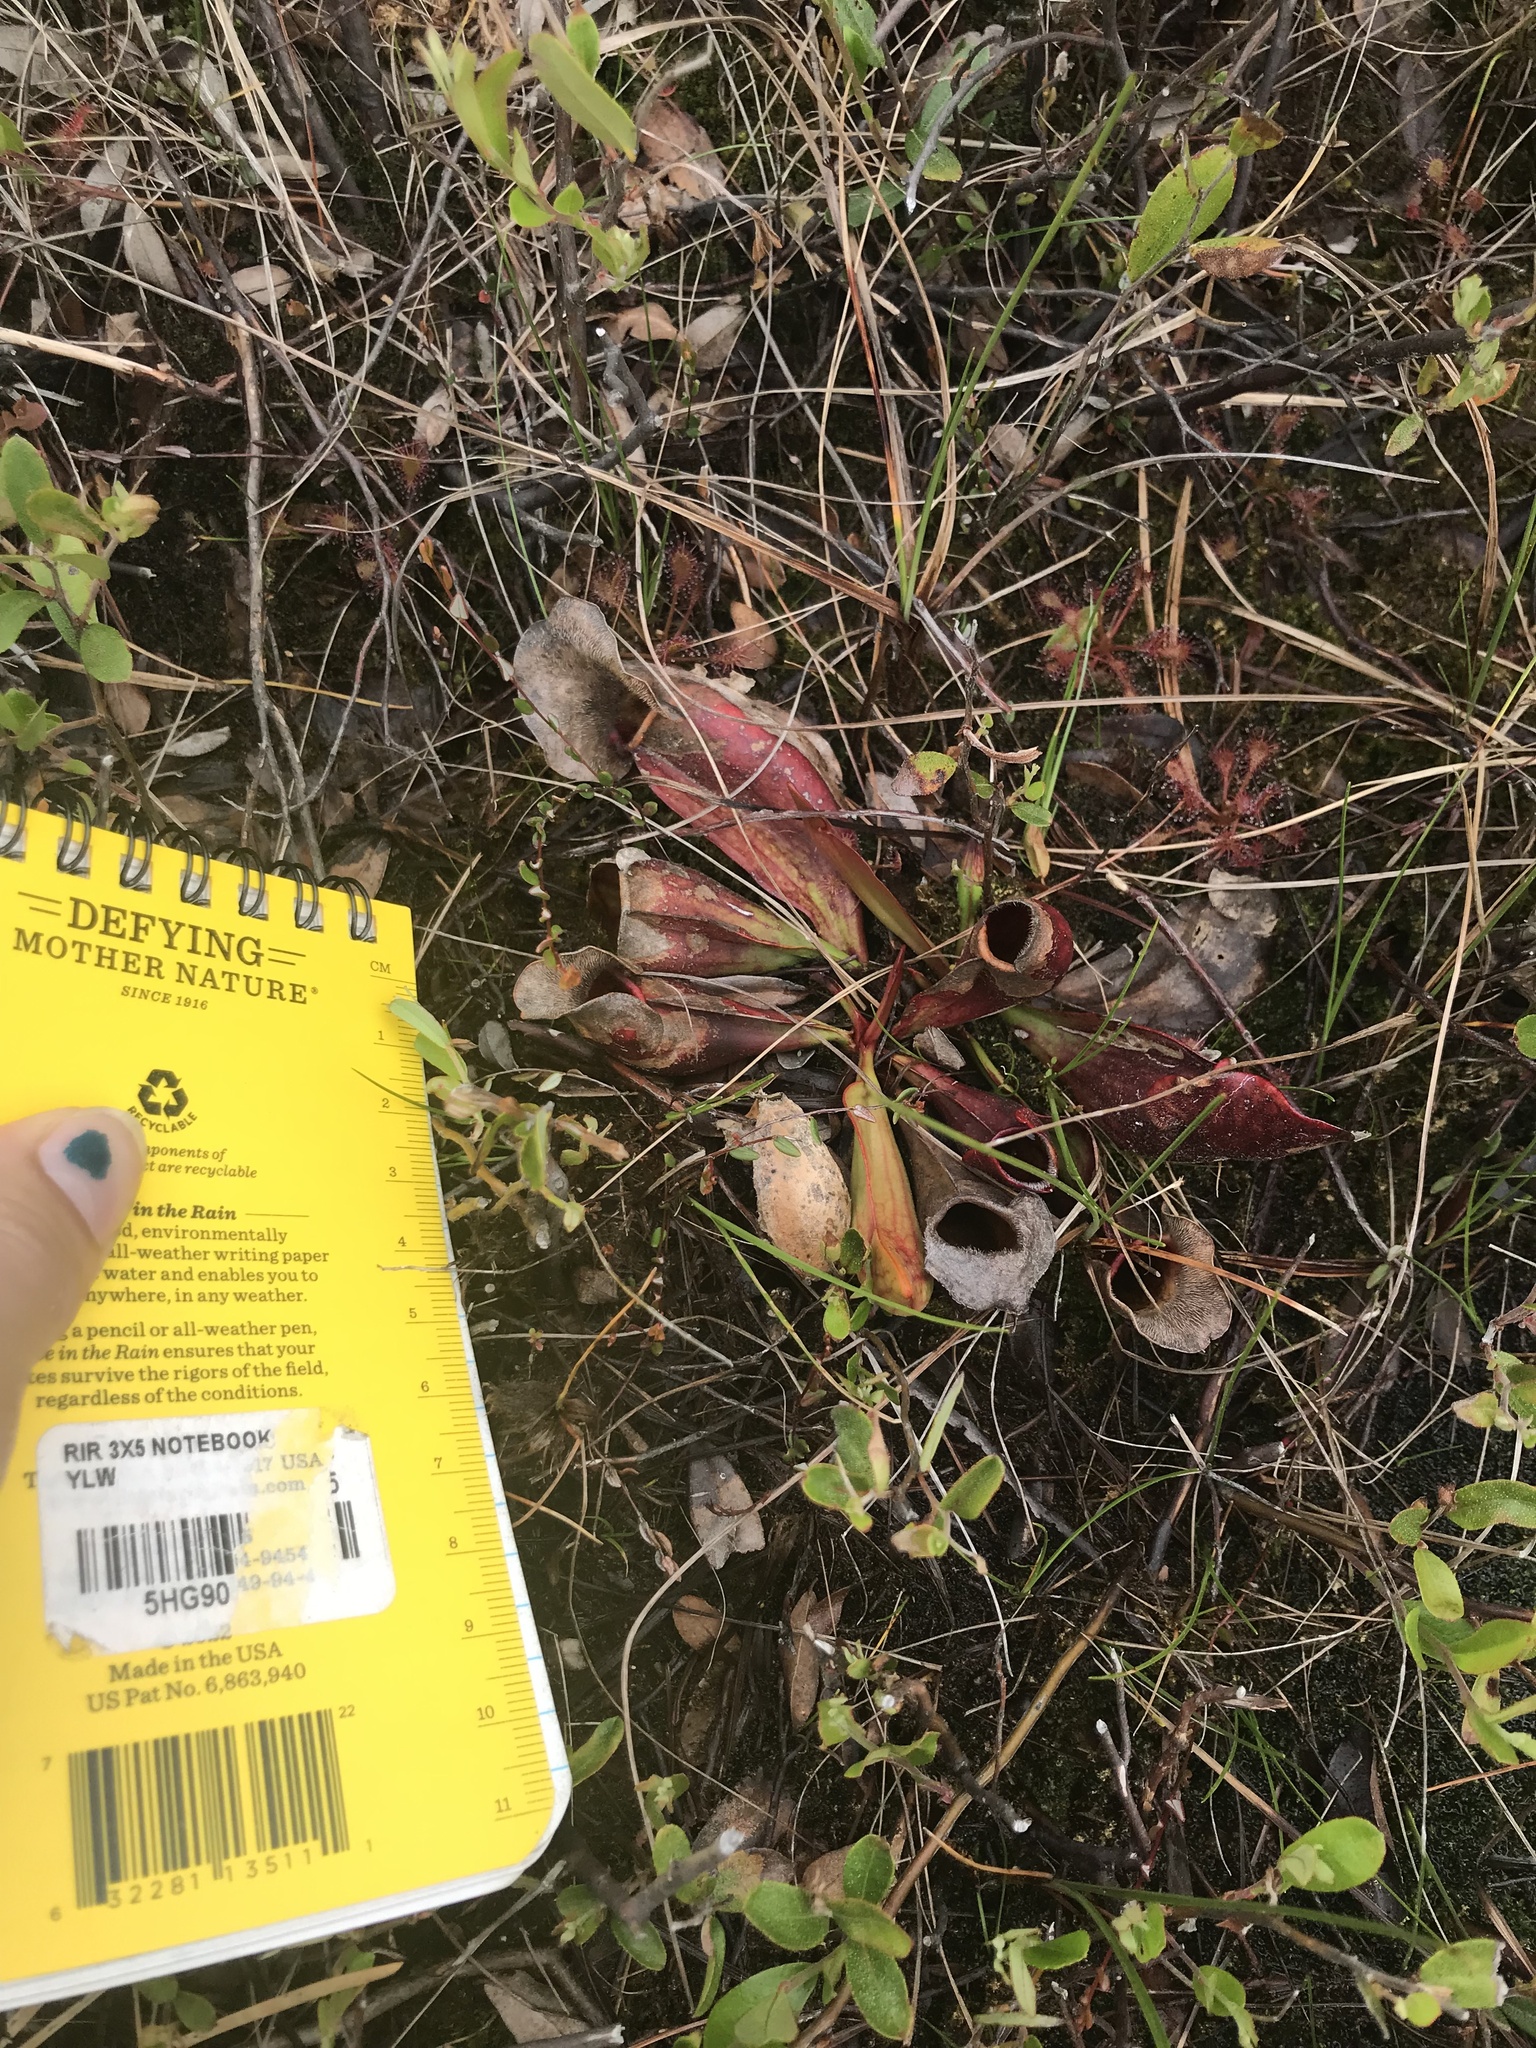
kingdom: Plantae
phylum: Tracheophyta
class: Magnoliopsida
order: Ericales
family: Sarraceniaceae
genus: Sarracenia
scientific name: Sarracenia purpurea
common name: Pitcherplant
